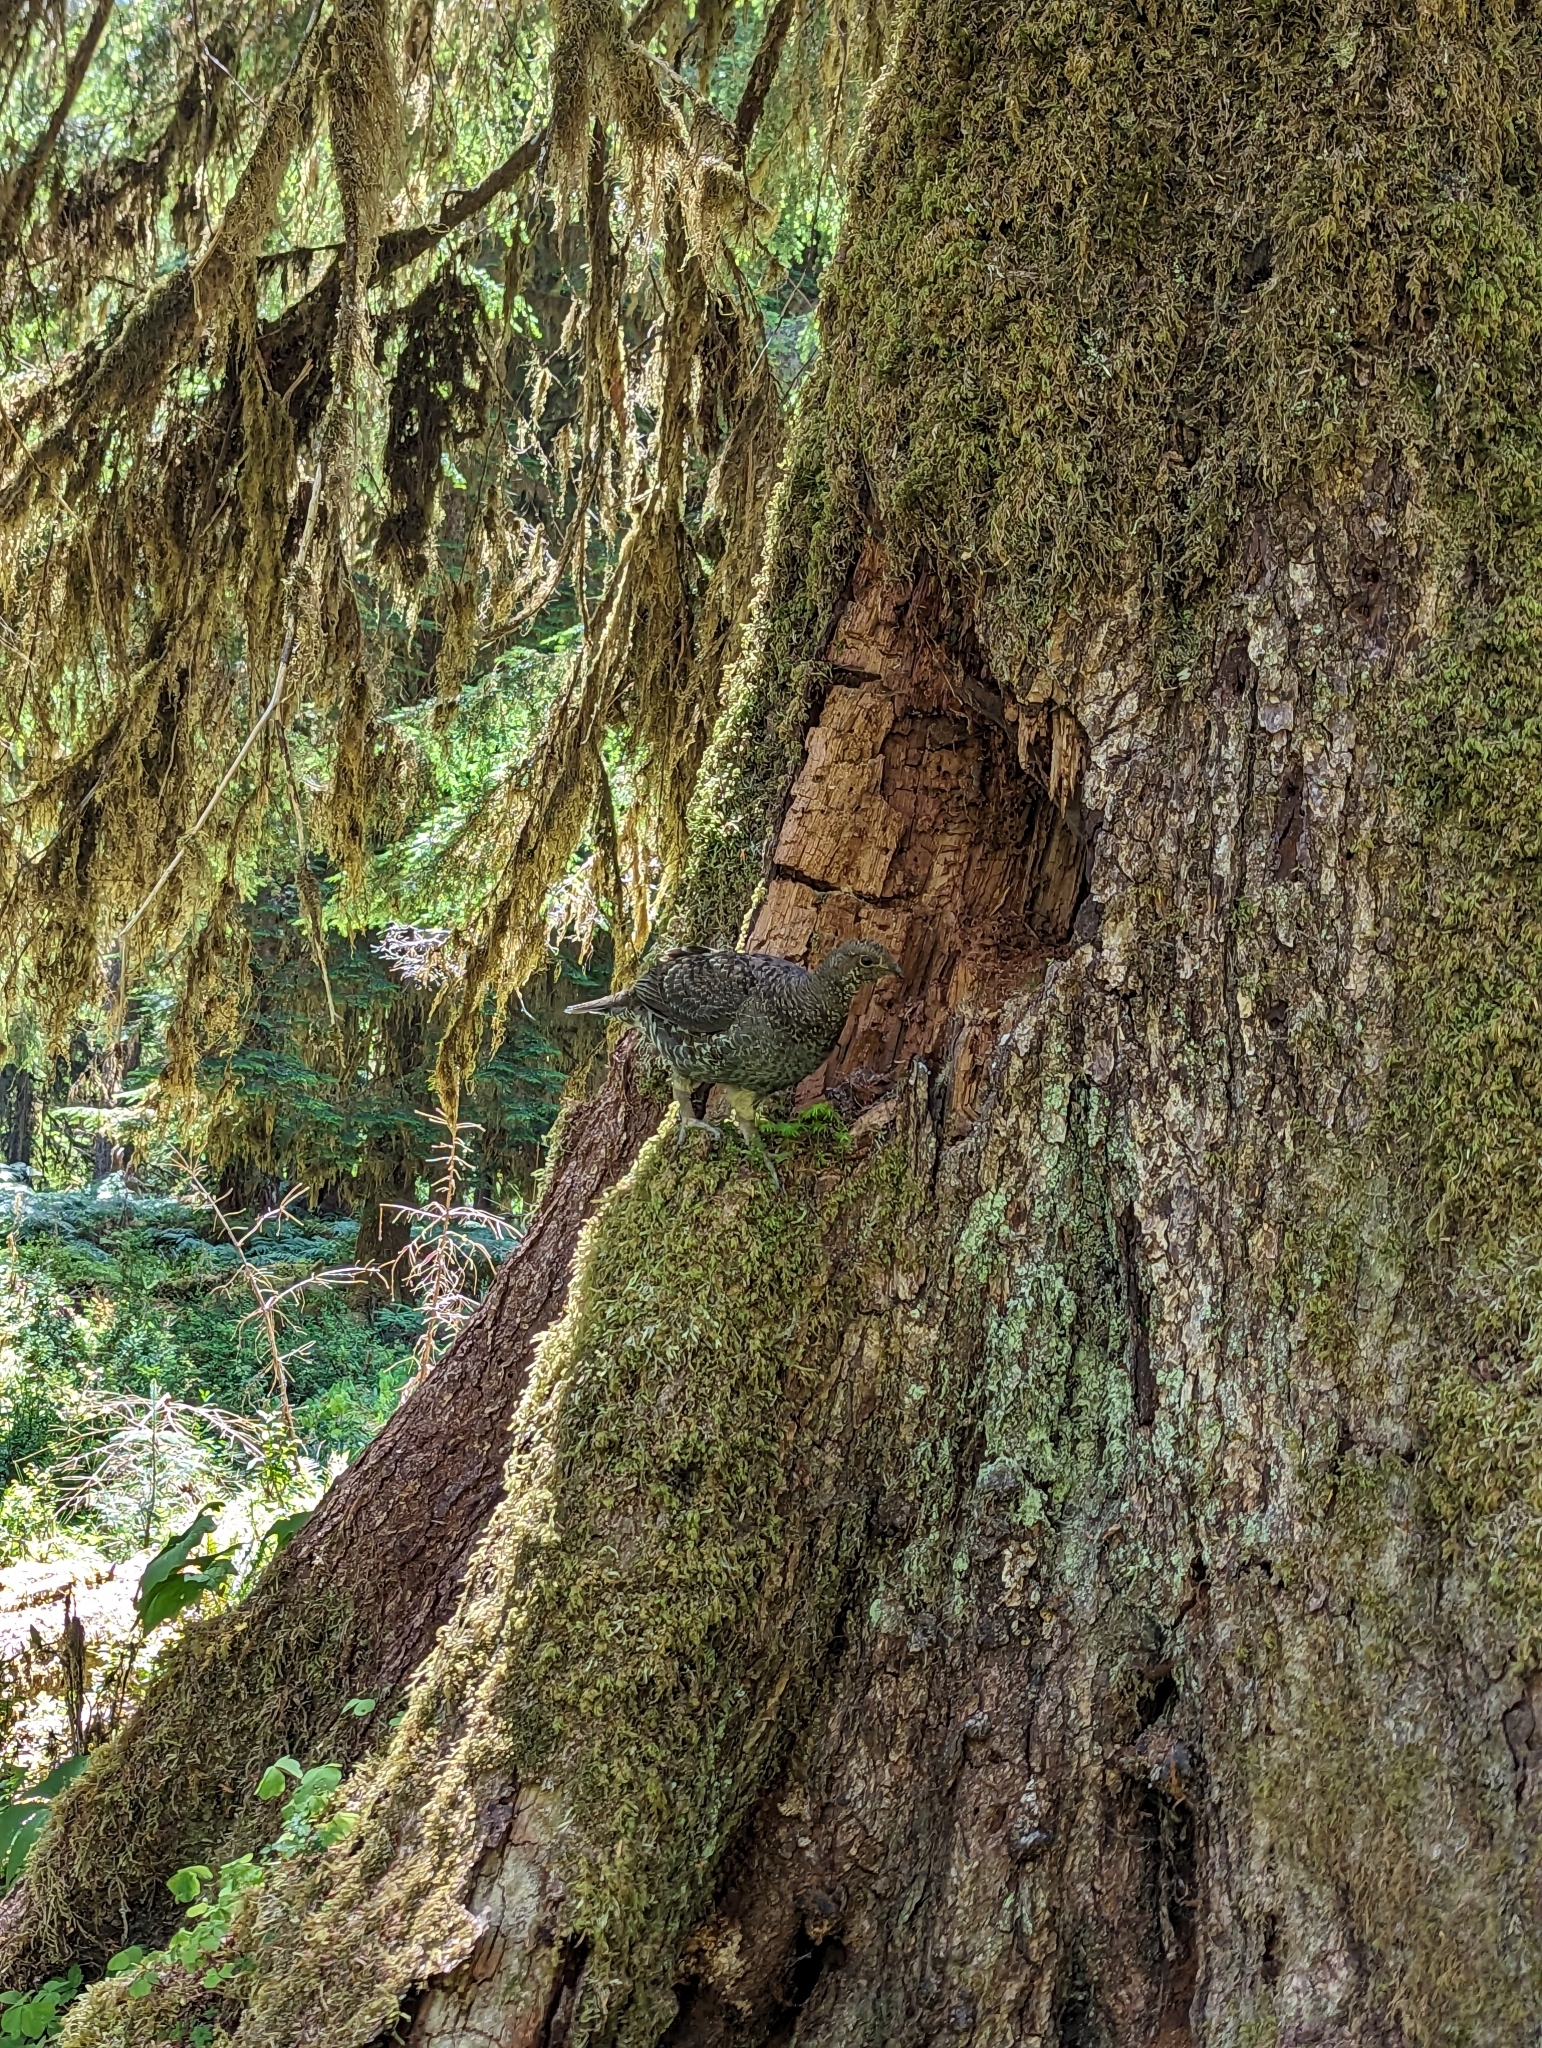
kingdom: Animalia
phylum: Chordata
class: Aves
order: Galliformes
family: Phasianidae
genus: Dendragapus
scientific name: Dendragapus fuliginosus
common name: Sooty grouse
